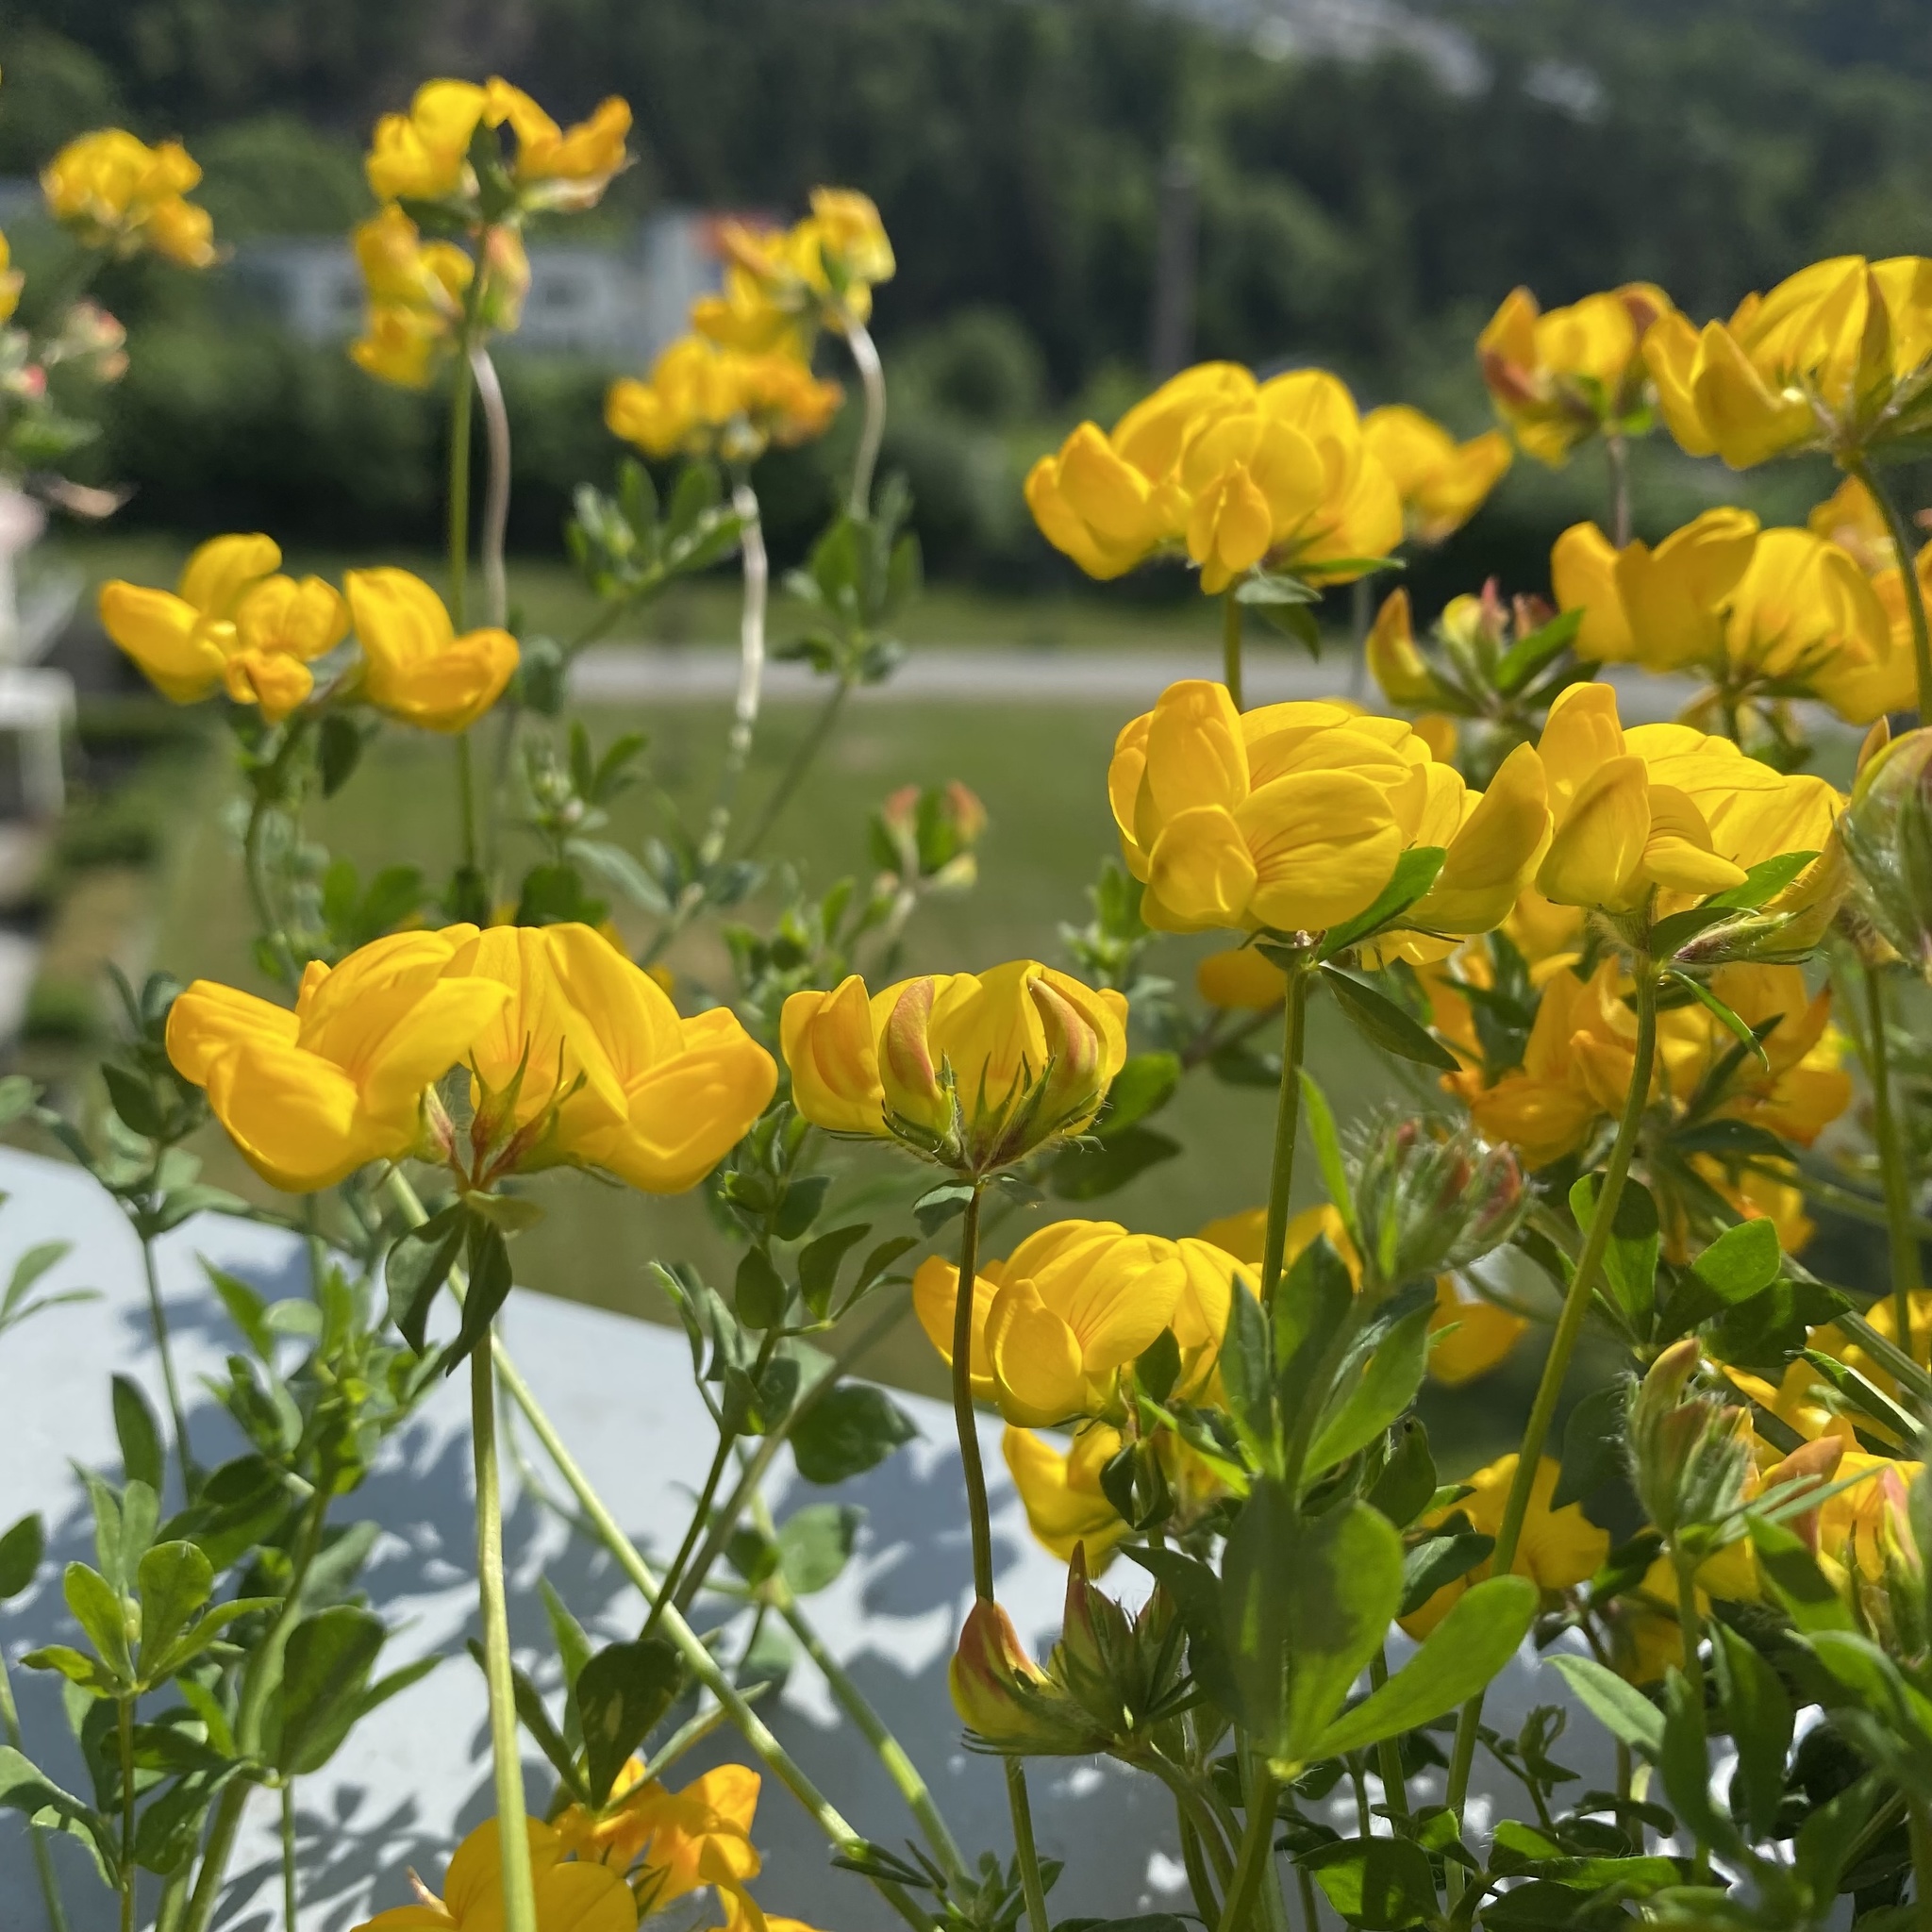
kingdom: Plantae
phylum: Tracheophyta
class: Magnoliopsida
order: Fabales
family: Fabaceae
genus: Lotus
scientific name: Lotus corniculatus
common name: Common bird's-foot-trefoil
